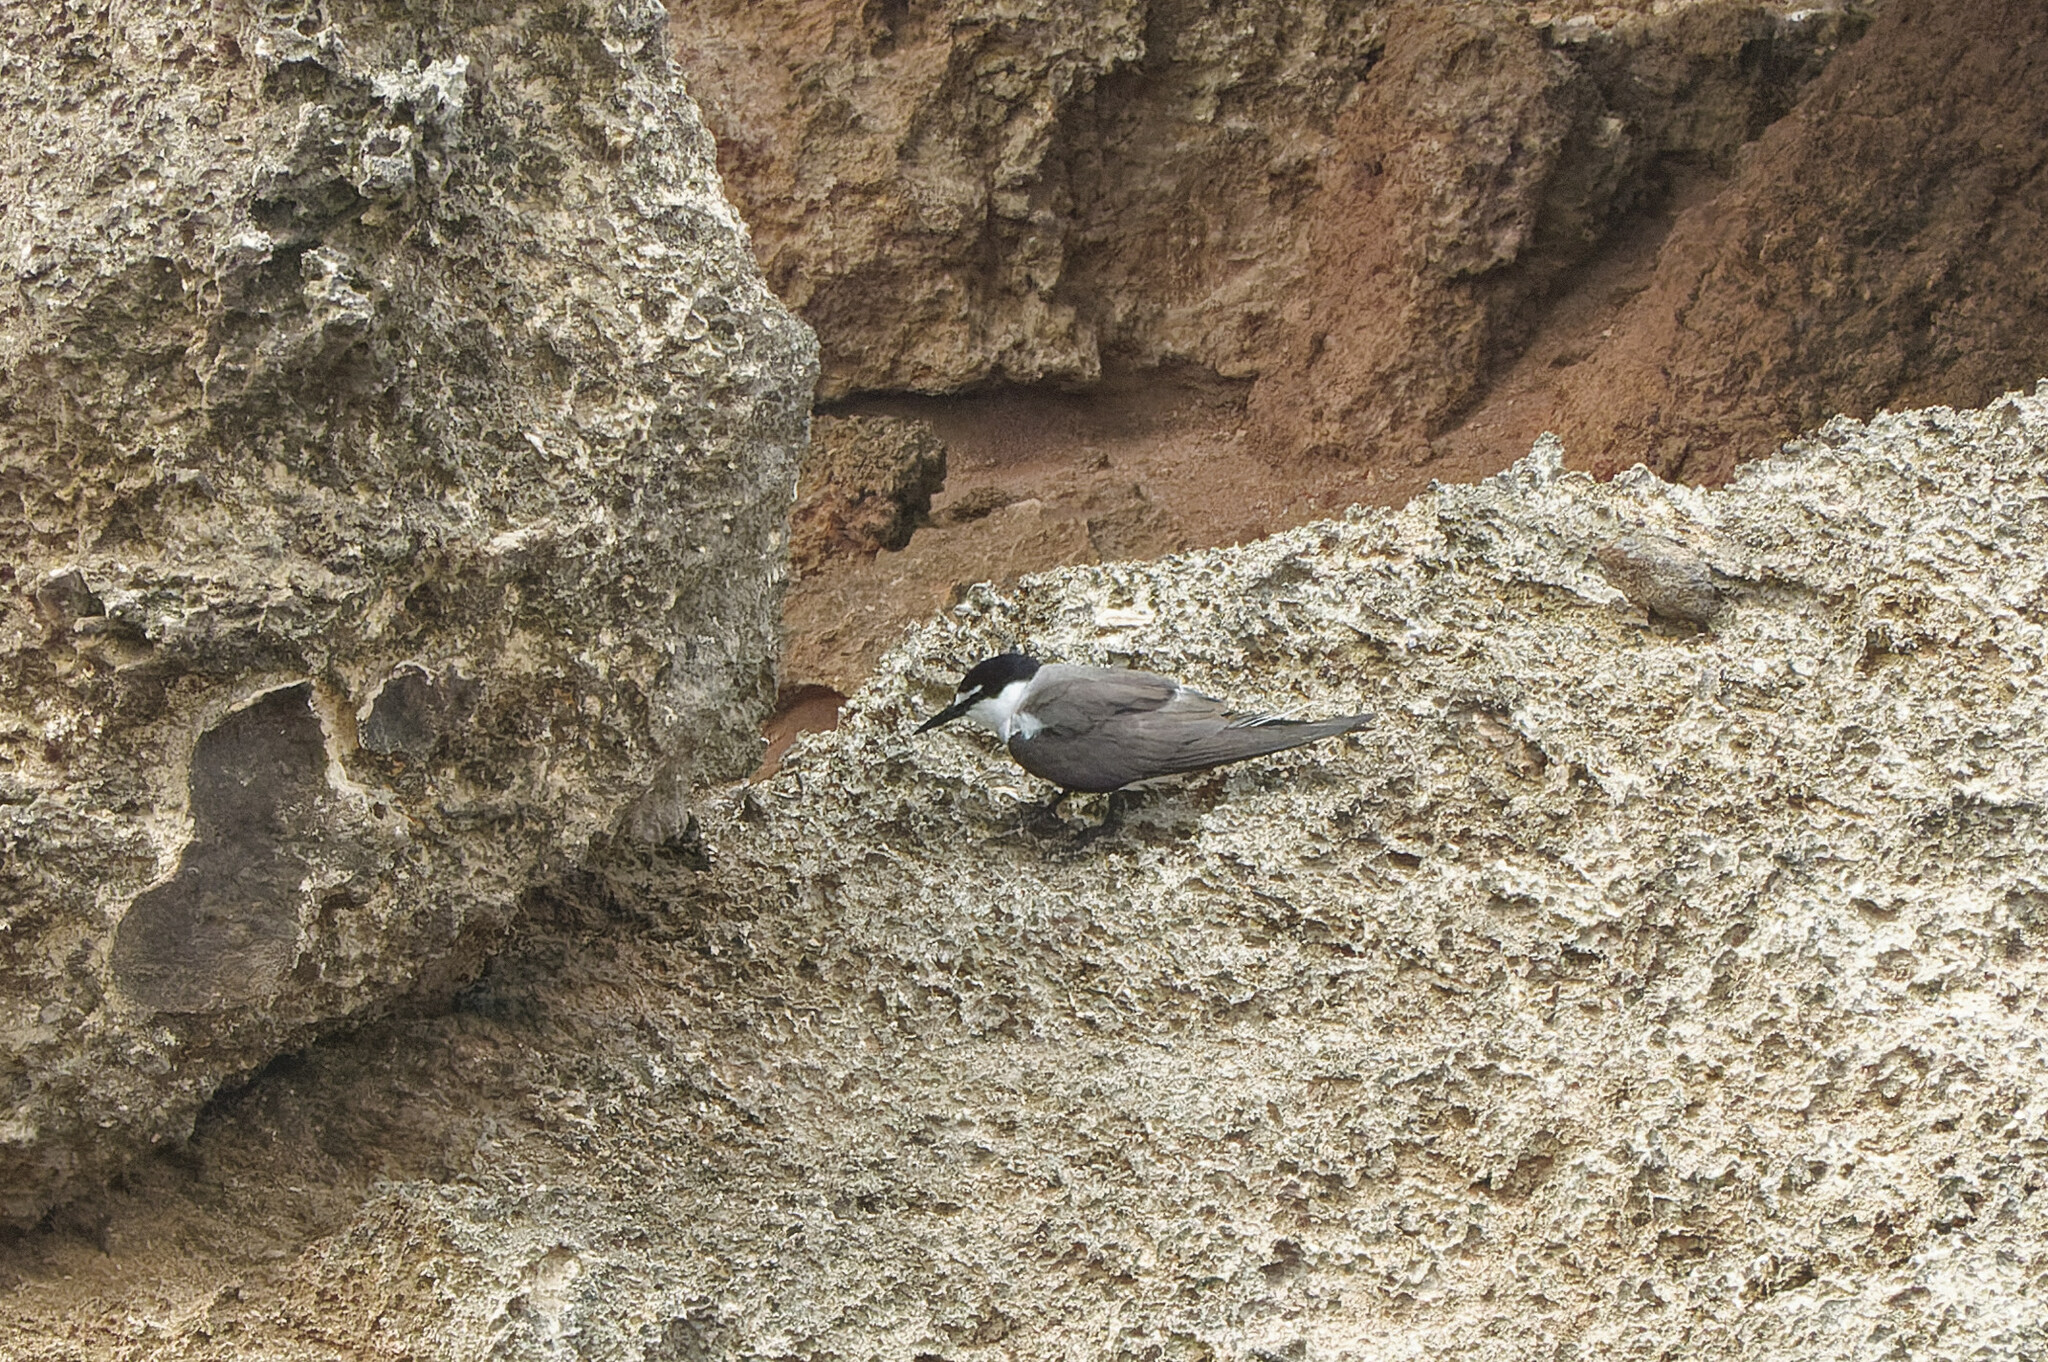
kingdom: Animalia
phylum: Chordata
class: Aves
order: Charadriiformes
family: Laridae
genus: Onychoprion
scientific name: Onychoprion anaethetus
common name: Bridled tern
